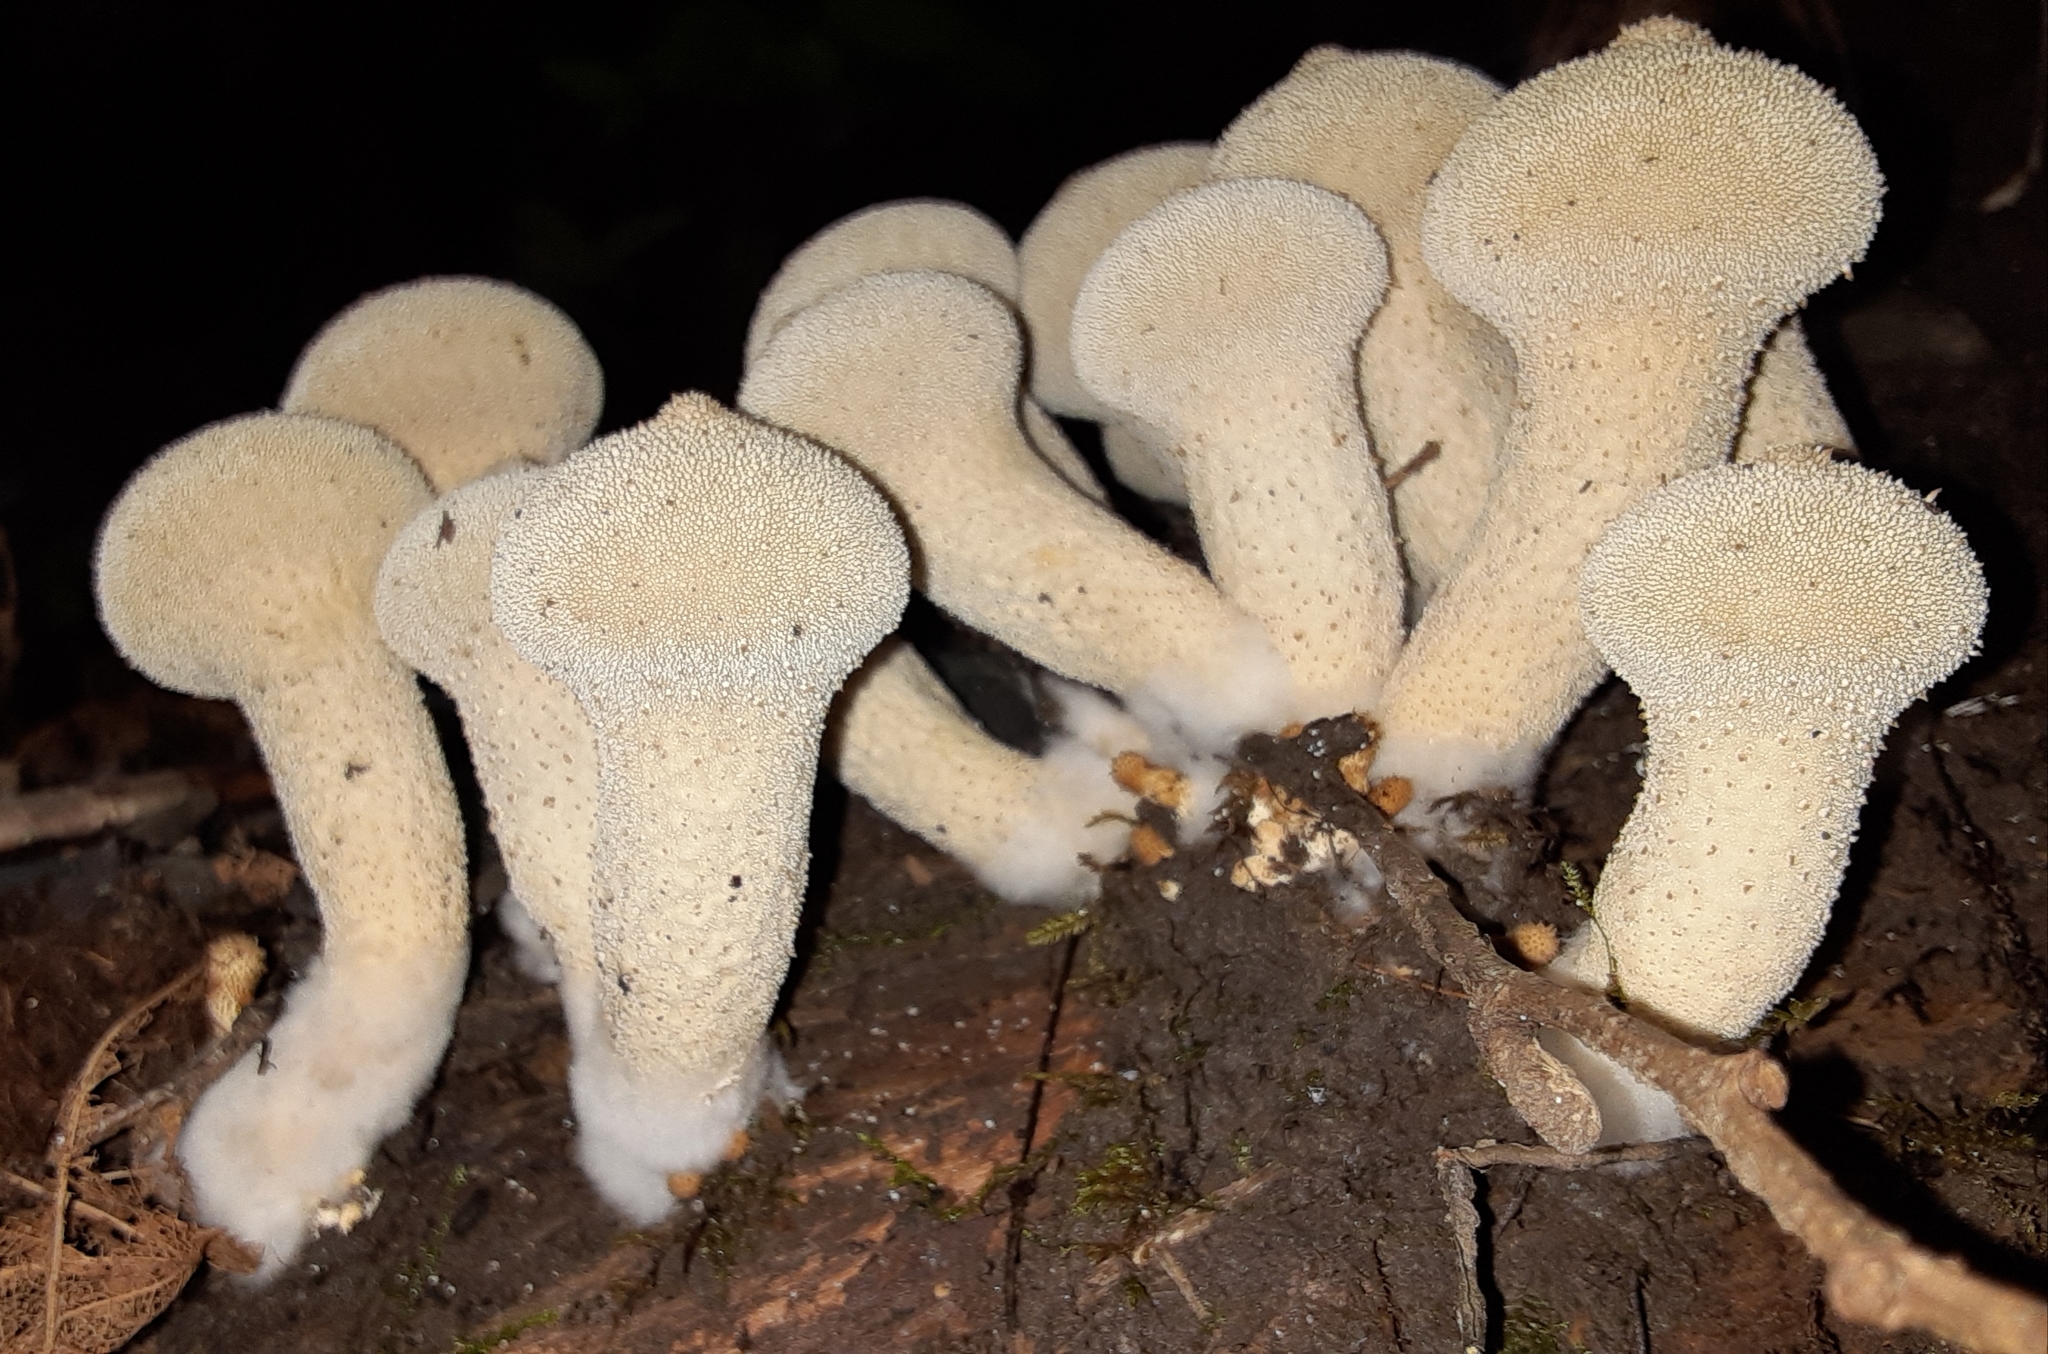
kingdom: Fungi
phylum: Basidiomycota
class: Agaricomycetes
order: Agaricales
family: Lycoperdaceae
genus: Lycoperdon
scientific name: Lycoperdon perlatum
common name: Common puffball
